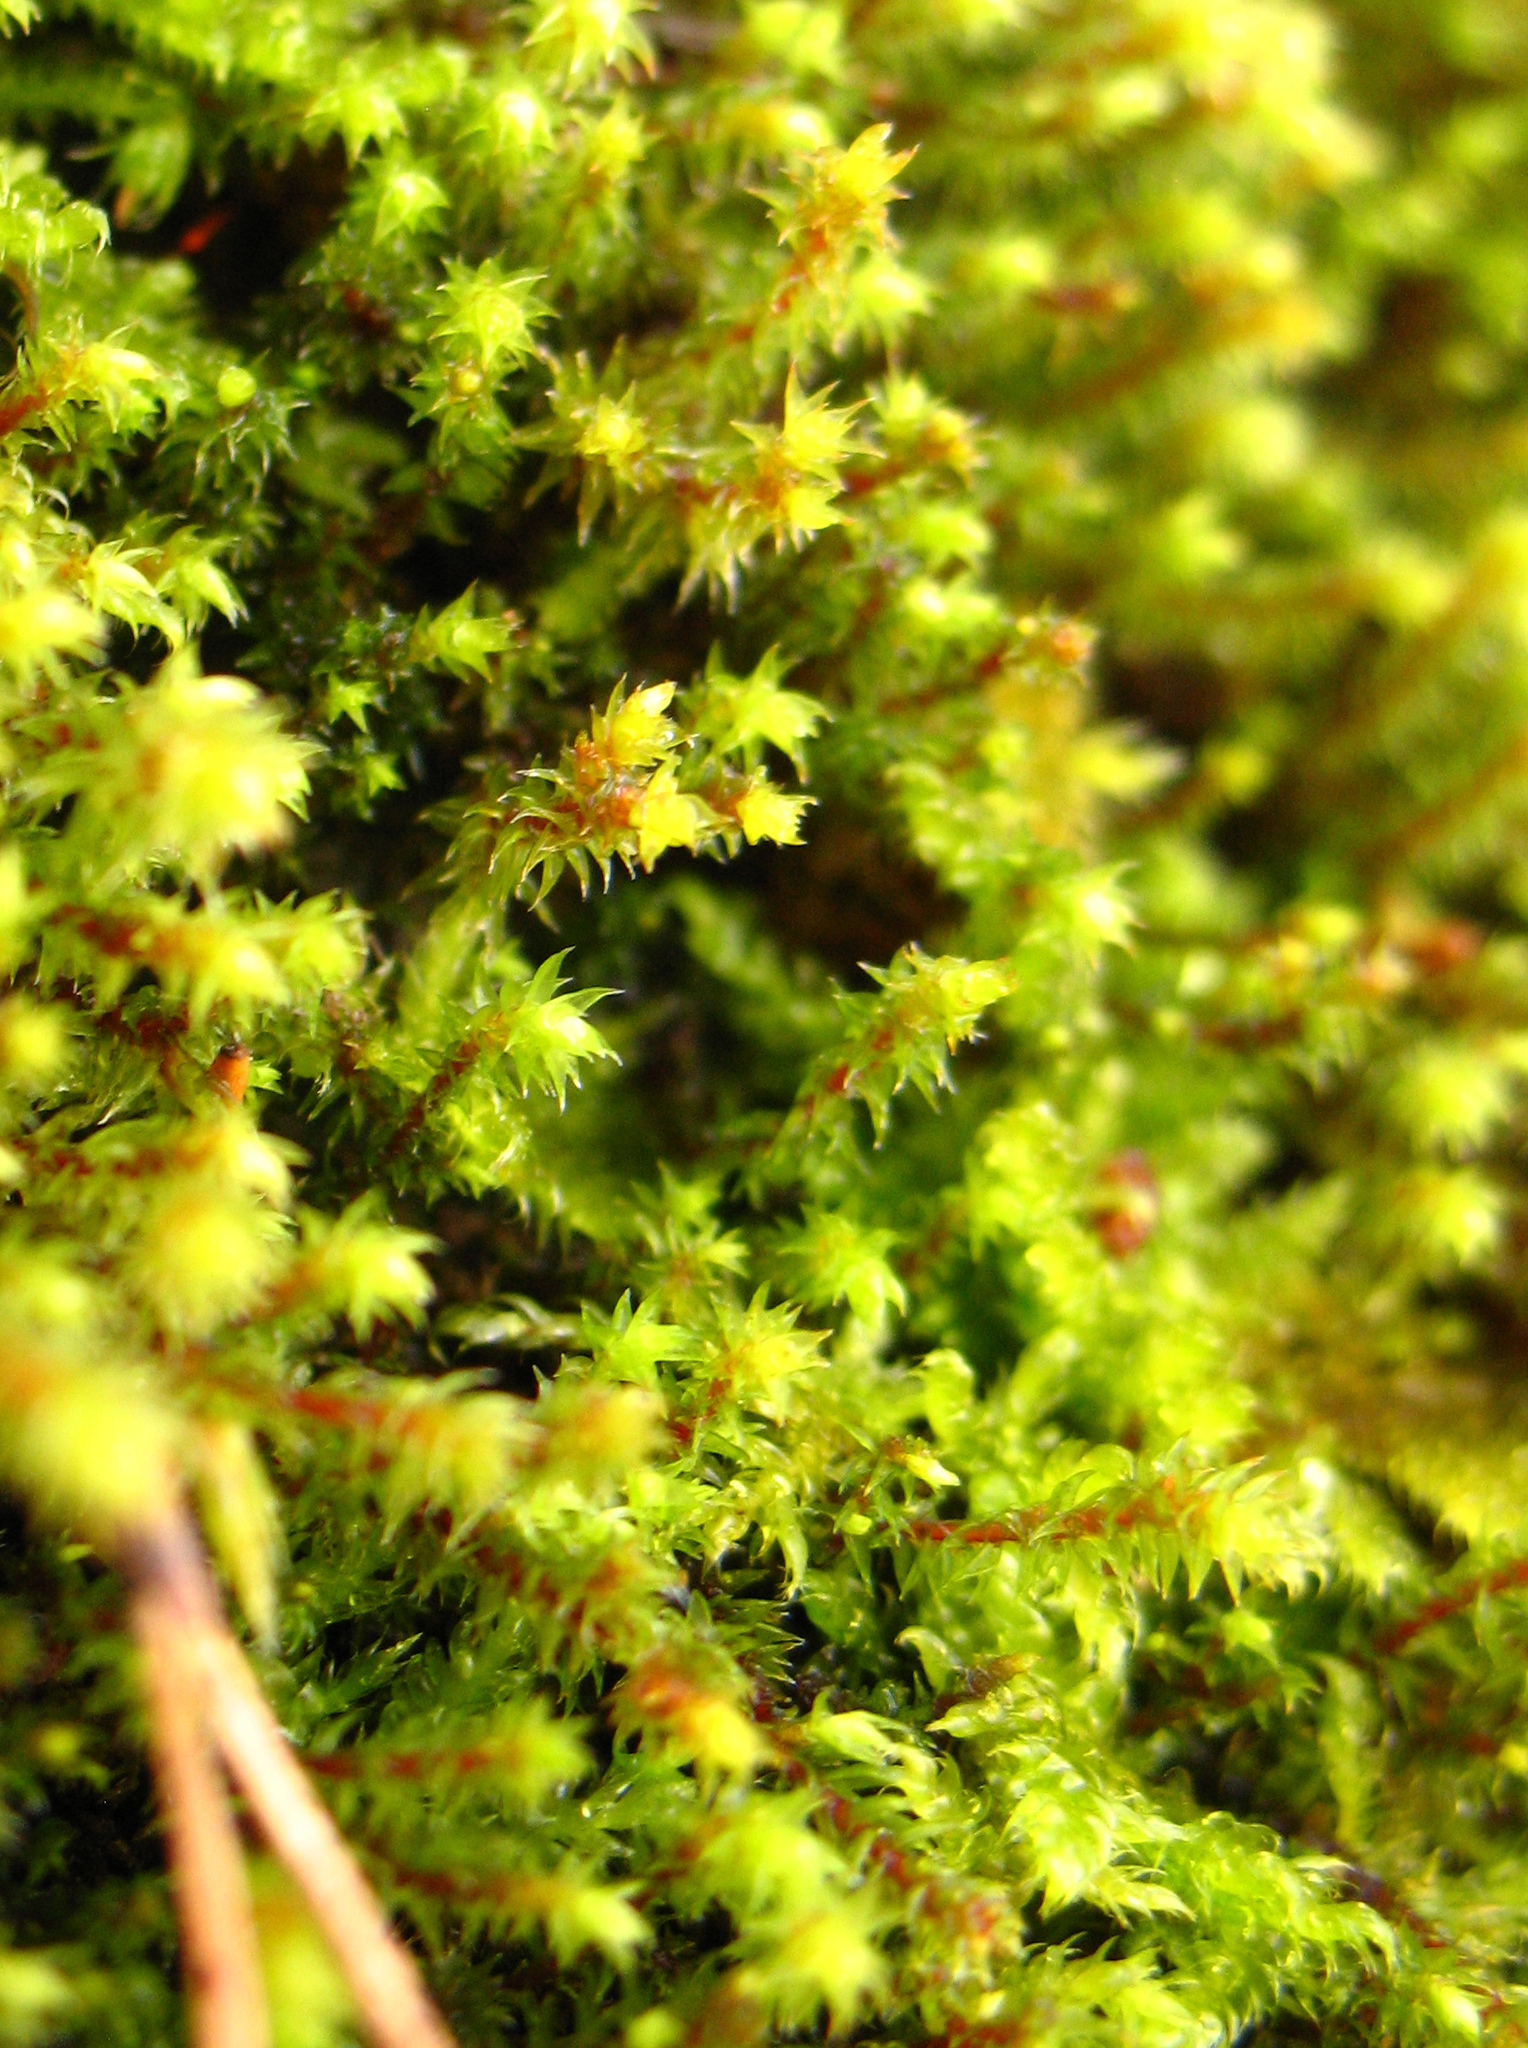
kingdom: Plantae
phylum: Bryophyta
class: Bryopsida
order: Hypnales
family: Hylocomiaceae
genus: Hylocomiadelphus
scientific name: Hylocomiadelphus triquetrus
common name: Rough goose neck moss
